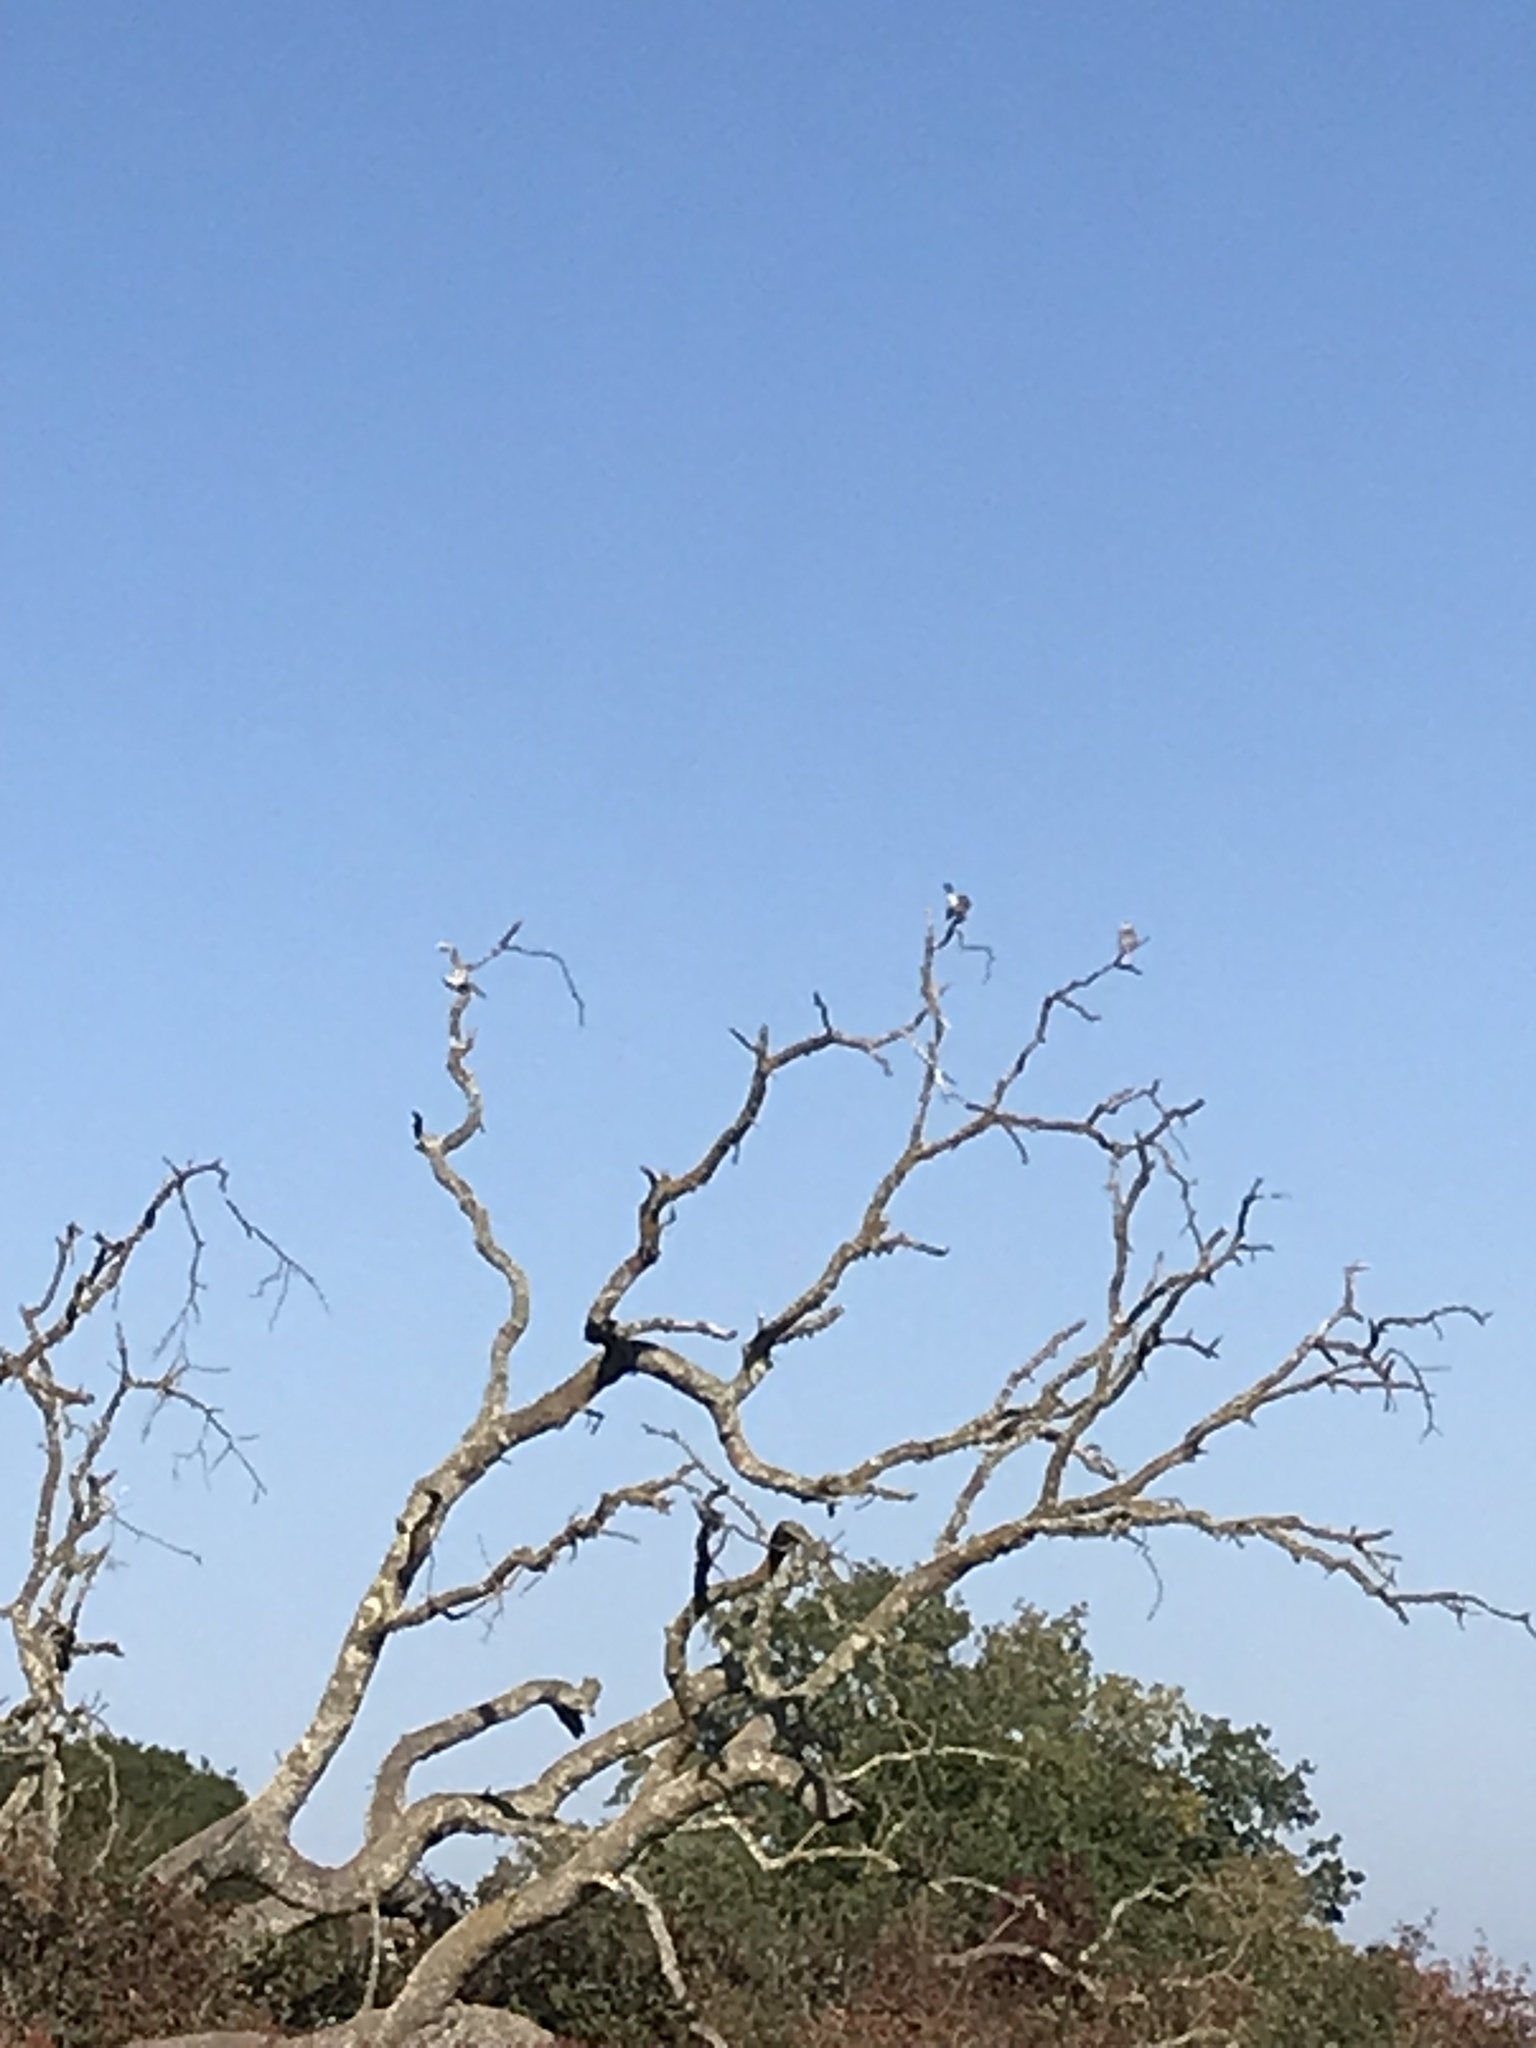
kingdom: Animalia
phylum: Chordata
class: Aves
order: Accipitriformes
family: Accipitridae
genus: Elanus
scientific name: Elanus leucurus
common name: White-tailed kite
